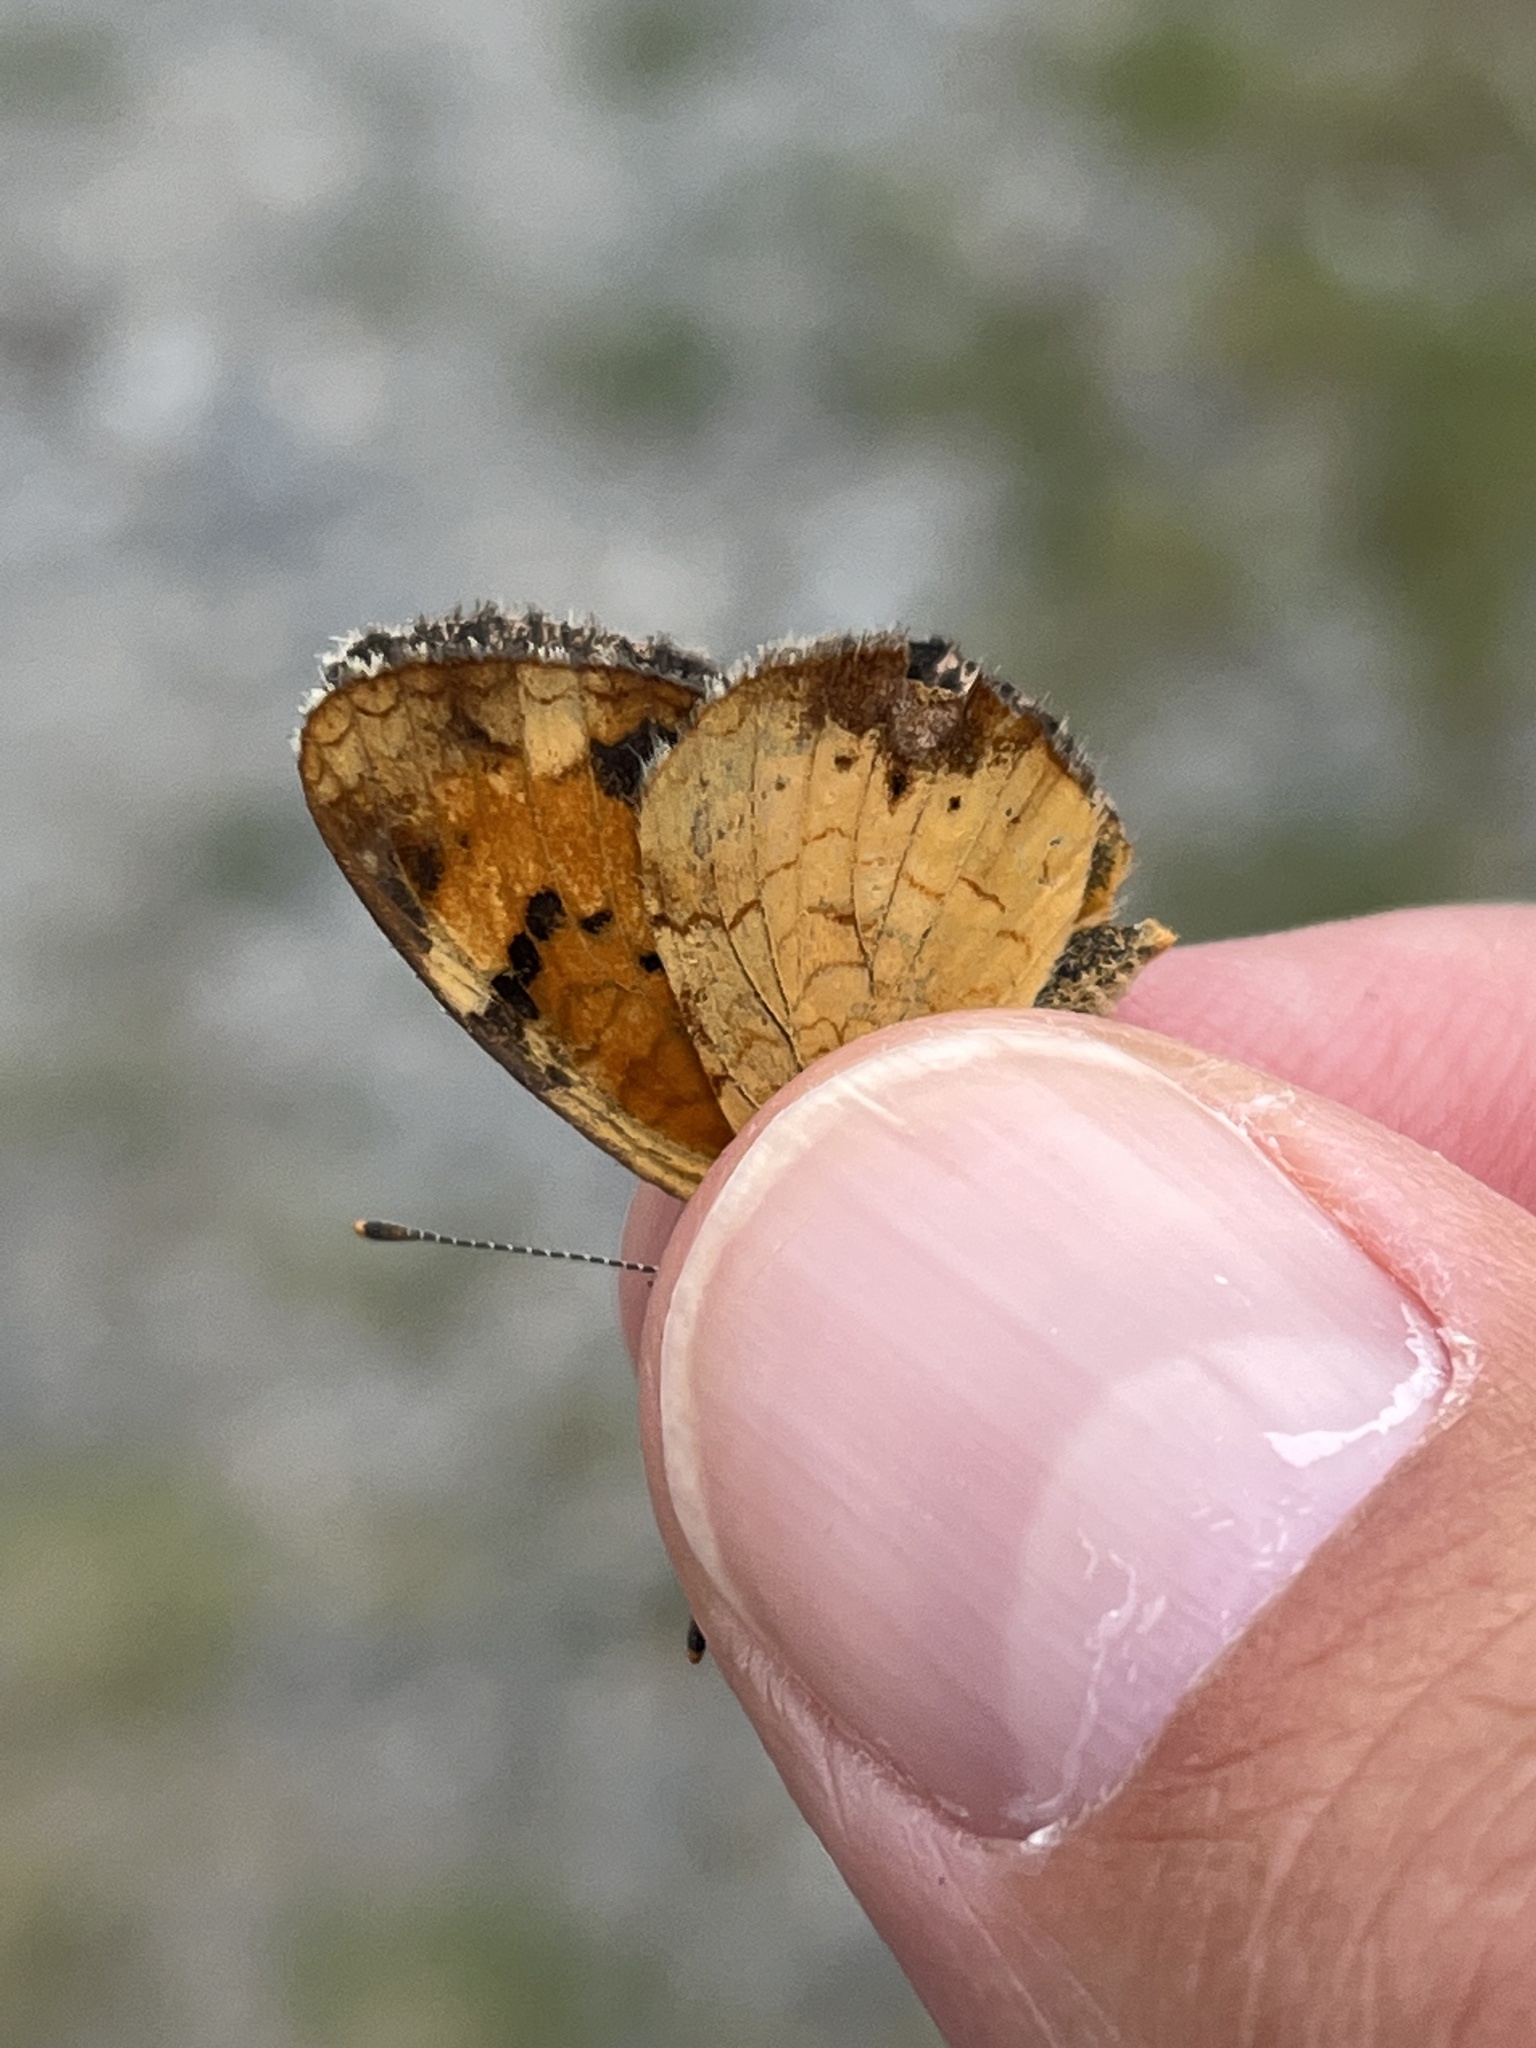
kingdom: Animalia
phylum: Arthropoda
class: Insecta
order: Lepidoptera
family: Nymphalidae
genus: Phyciodes
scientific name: Phyciodes tharos
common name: Pearl crescent
